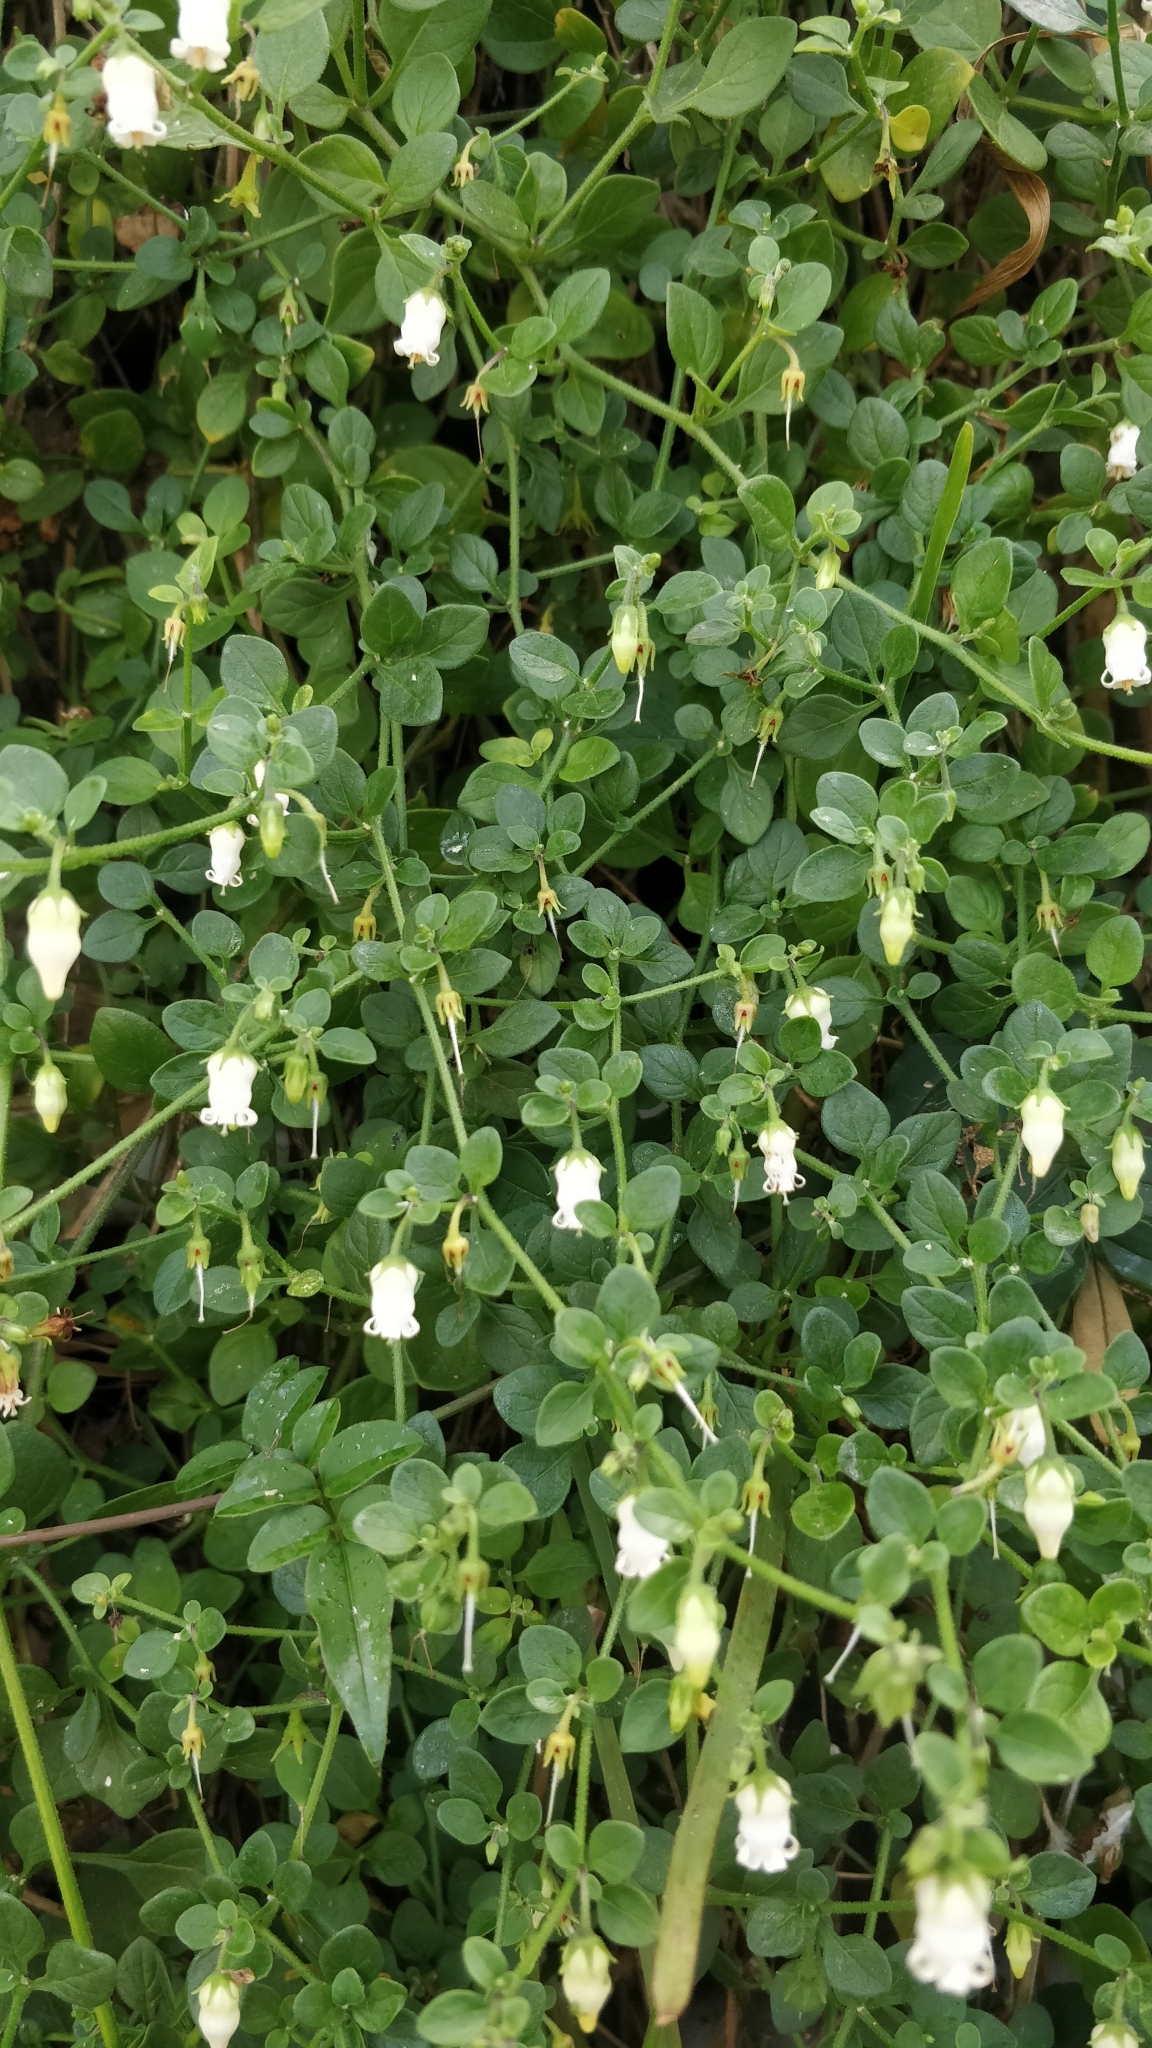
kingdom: Plantae
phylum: Tracheophyta
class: Magnoliopsida
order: Solanales
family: Solanaceae
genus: Salpichroa
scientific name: Salpichroa origanifolia
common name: Lily-of-the-valley-vine
